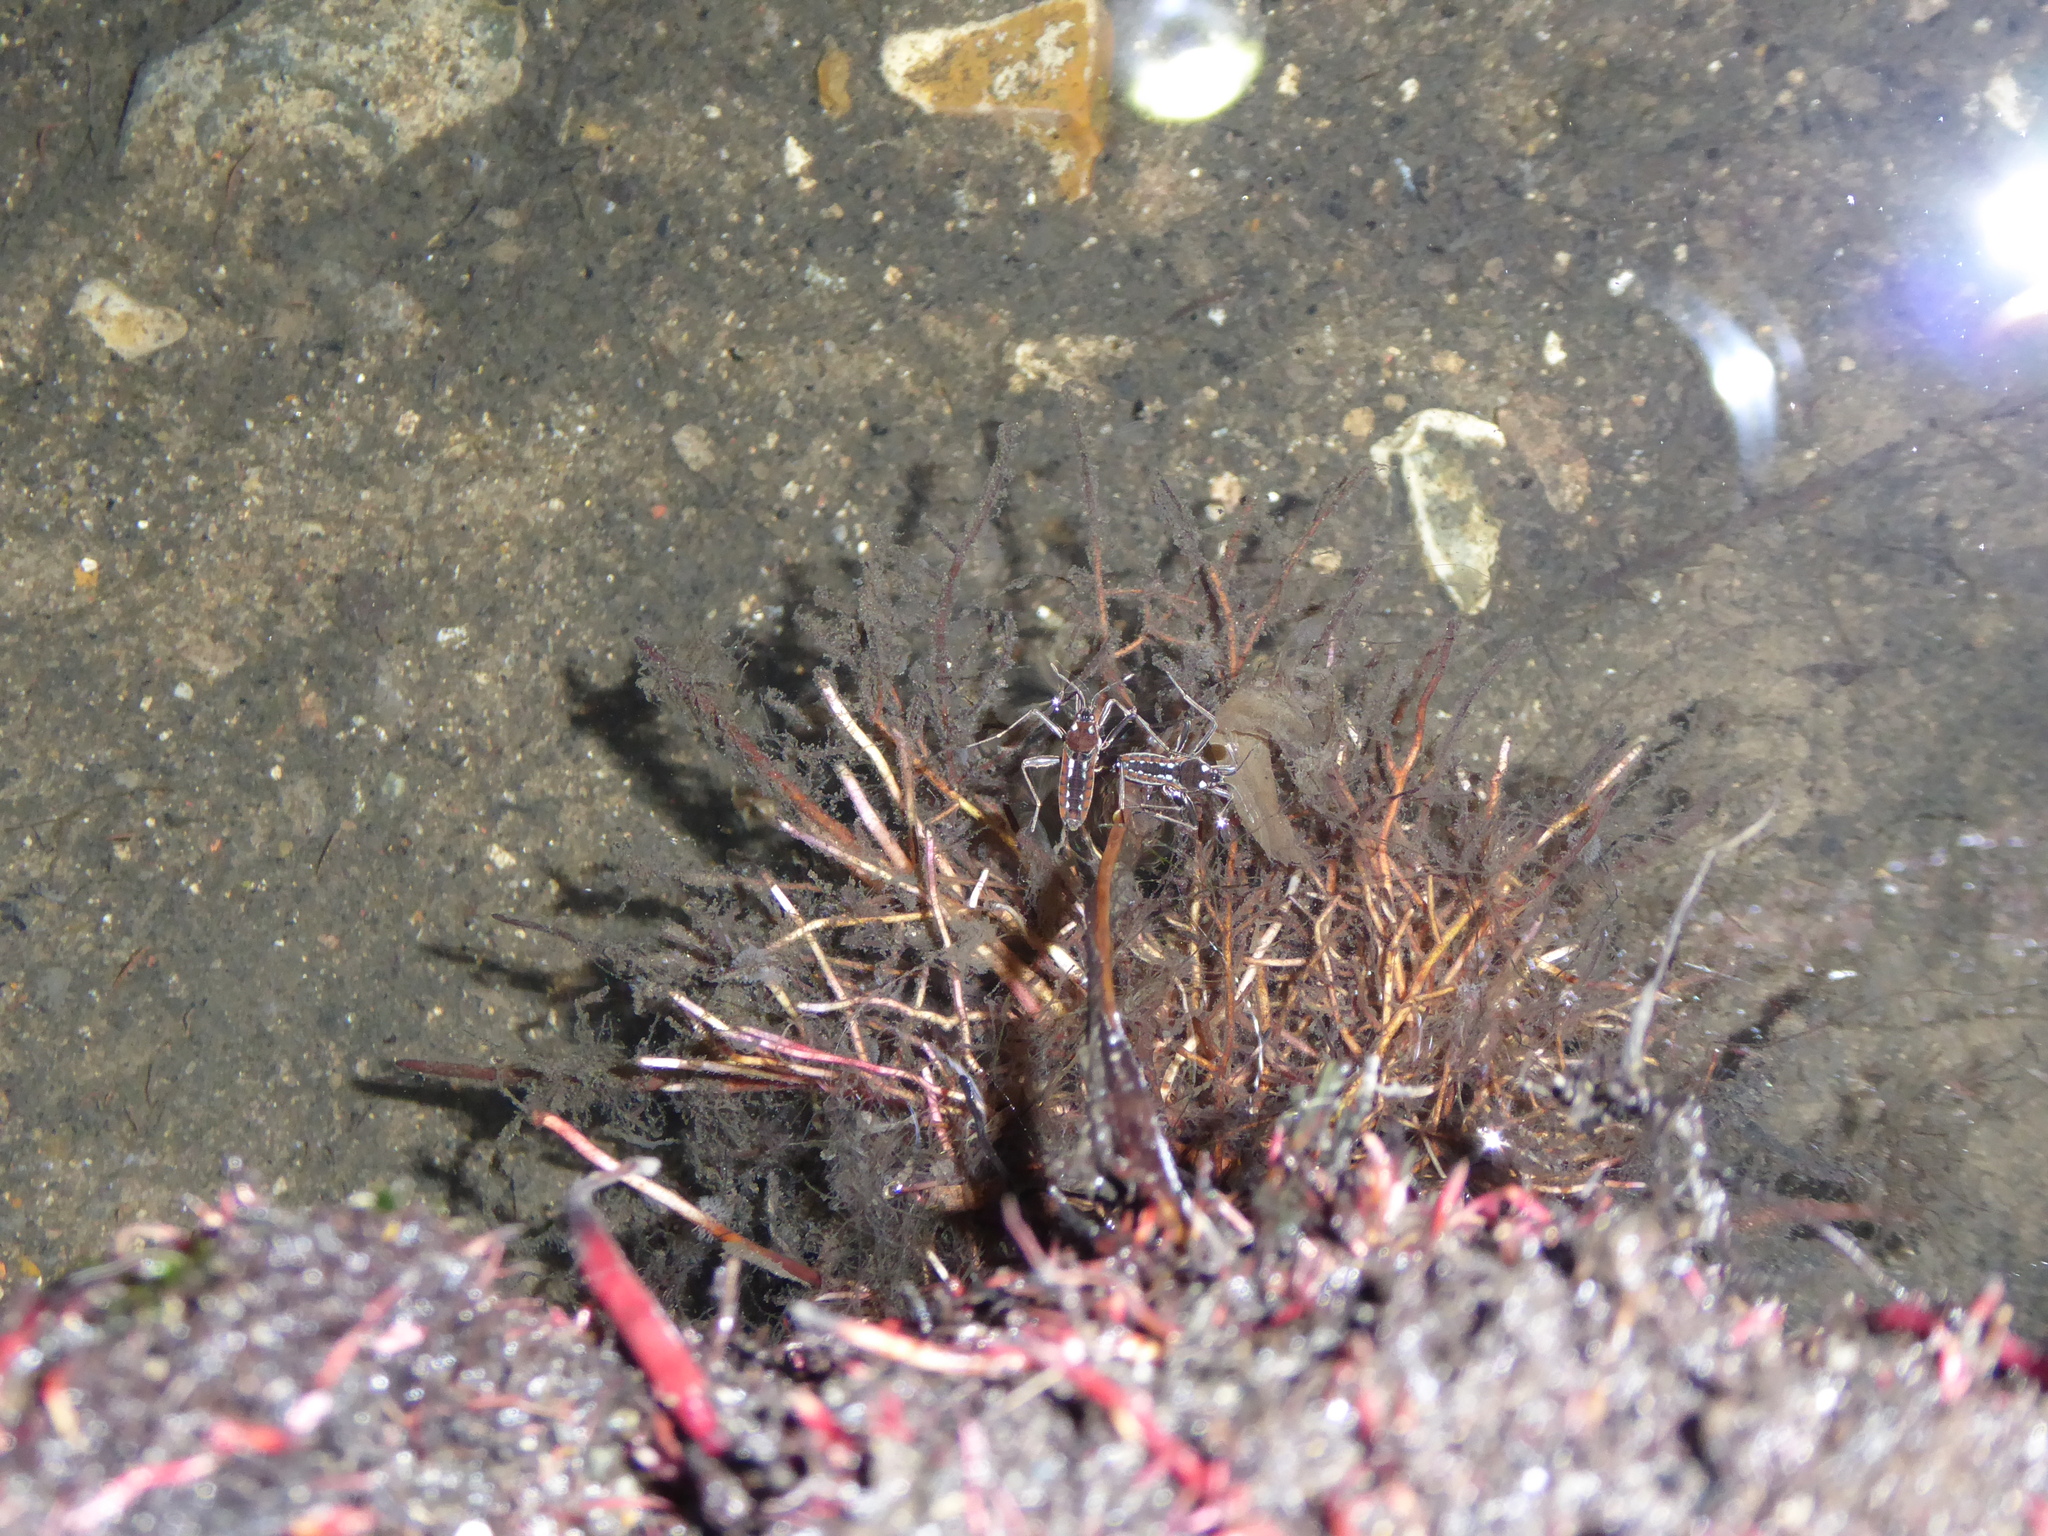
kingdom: Animalia
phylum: Arthropoda
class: Insecta
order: Hemiptera
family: Veliidae
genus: Velia
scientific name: Velia
